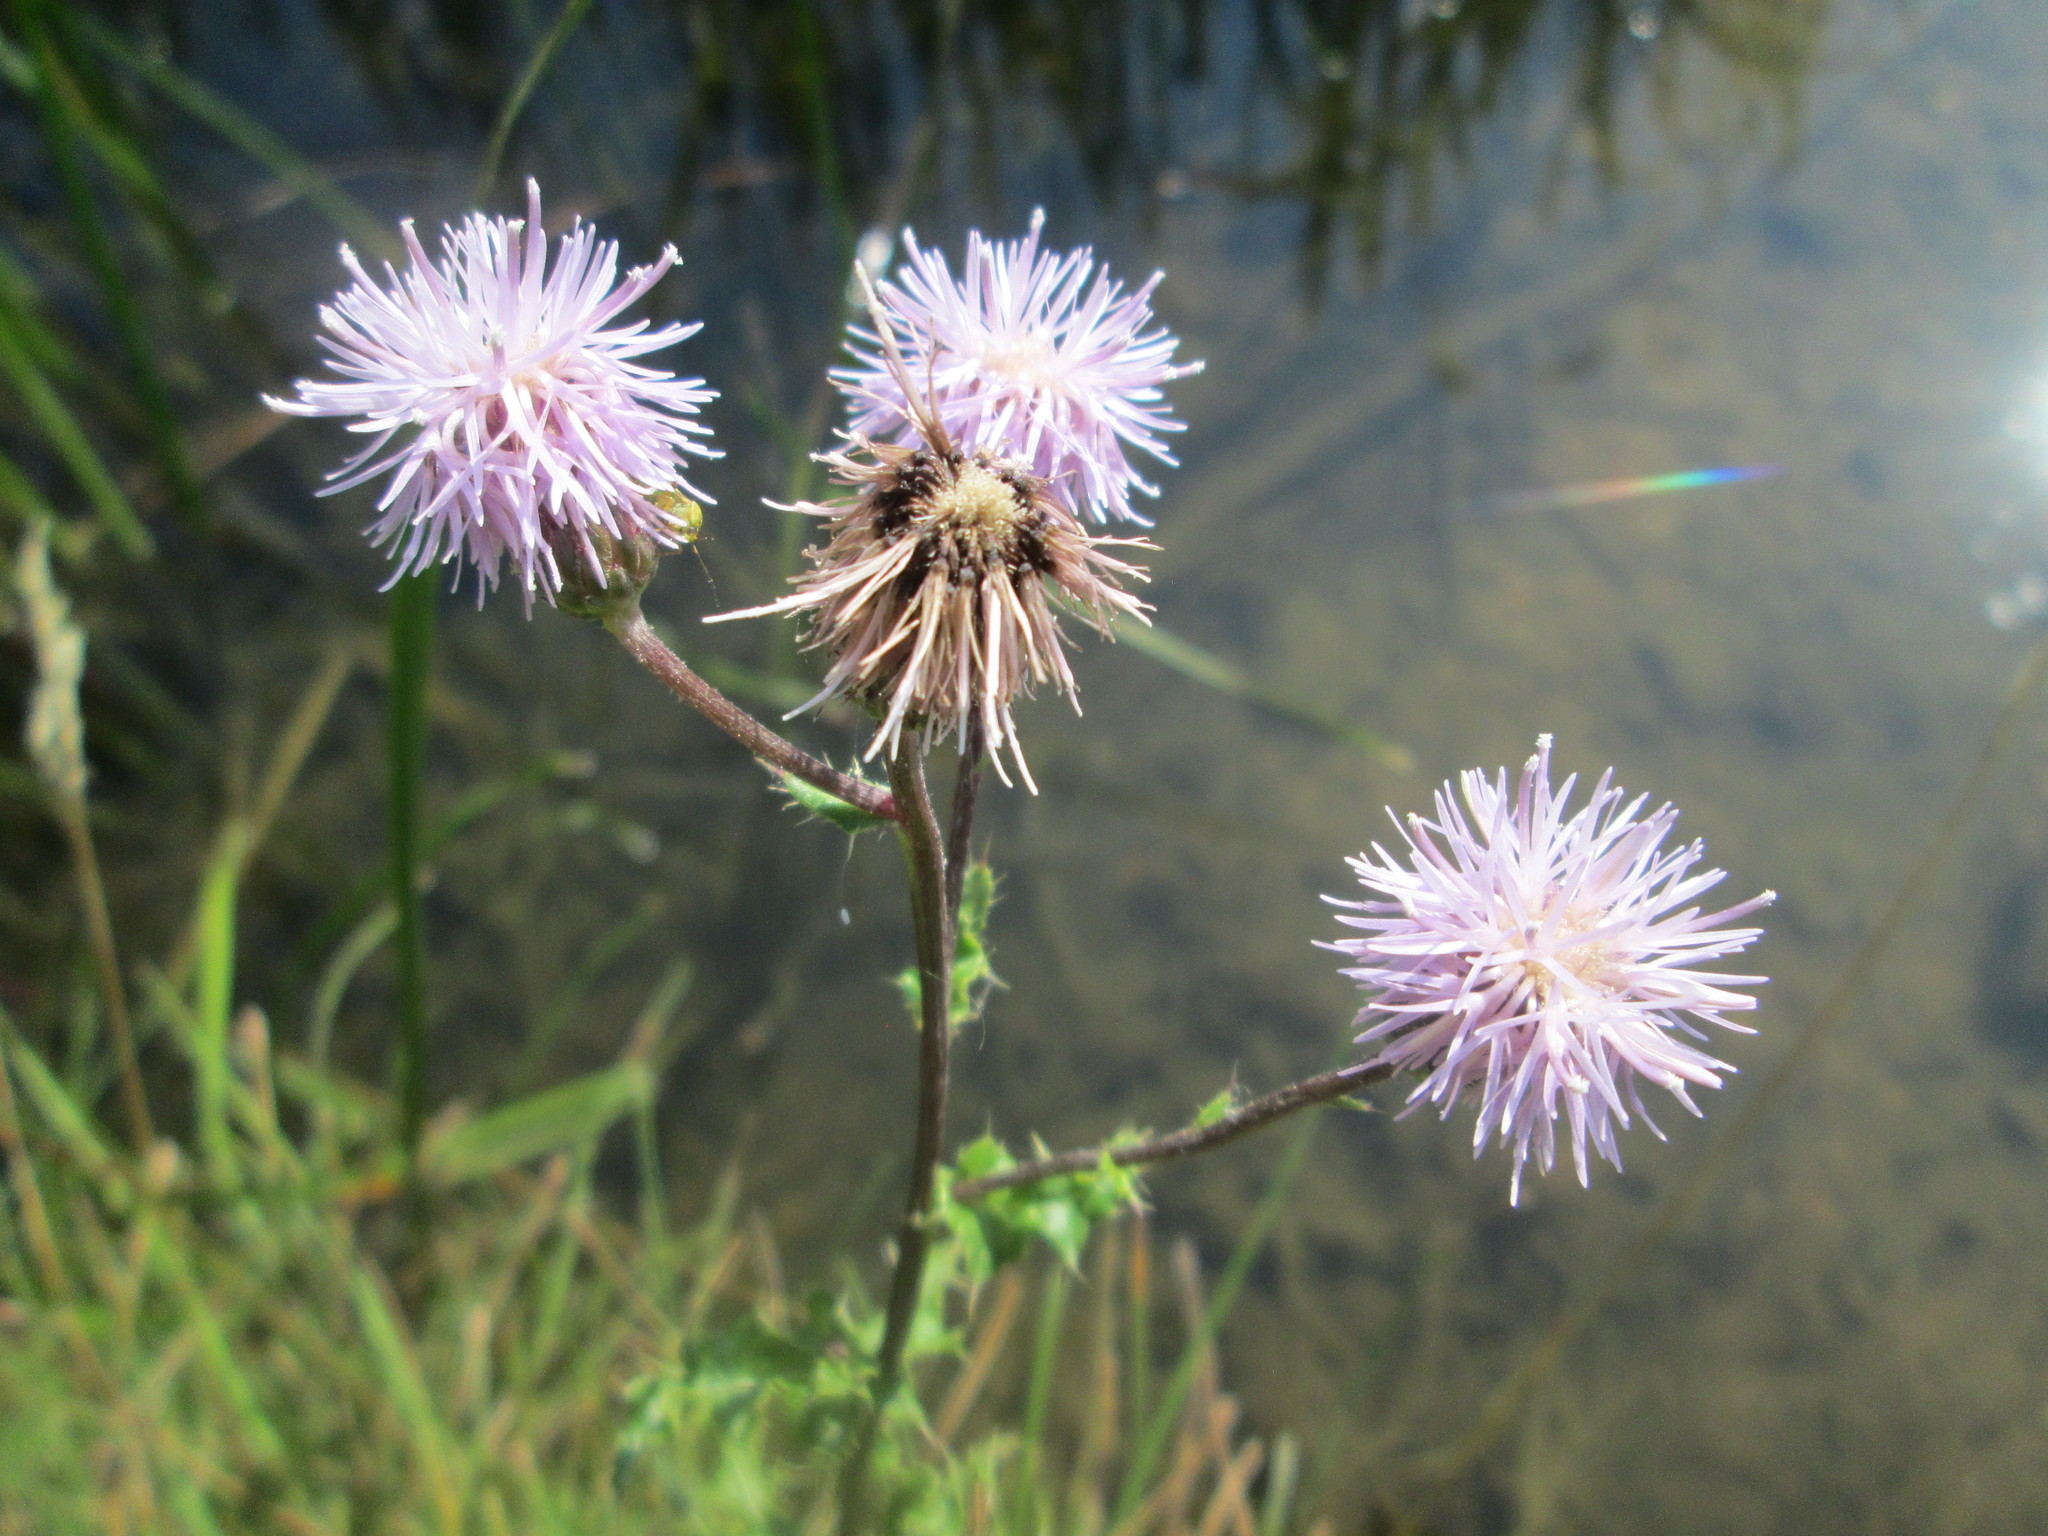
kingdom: Plantae
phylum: Tracheophyta
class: Magnoliopsida
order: Asterales
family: Asteraceae
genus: Cirsium
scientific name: Cirsium arvense
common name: Creeping thistle
